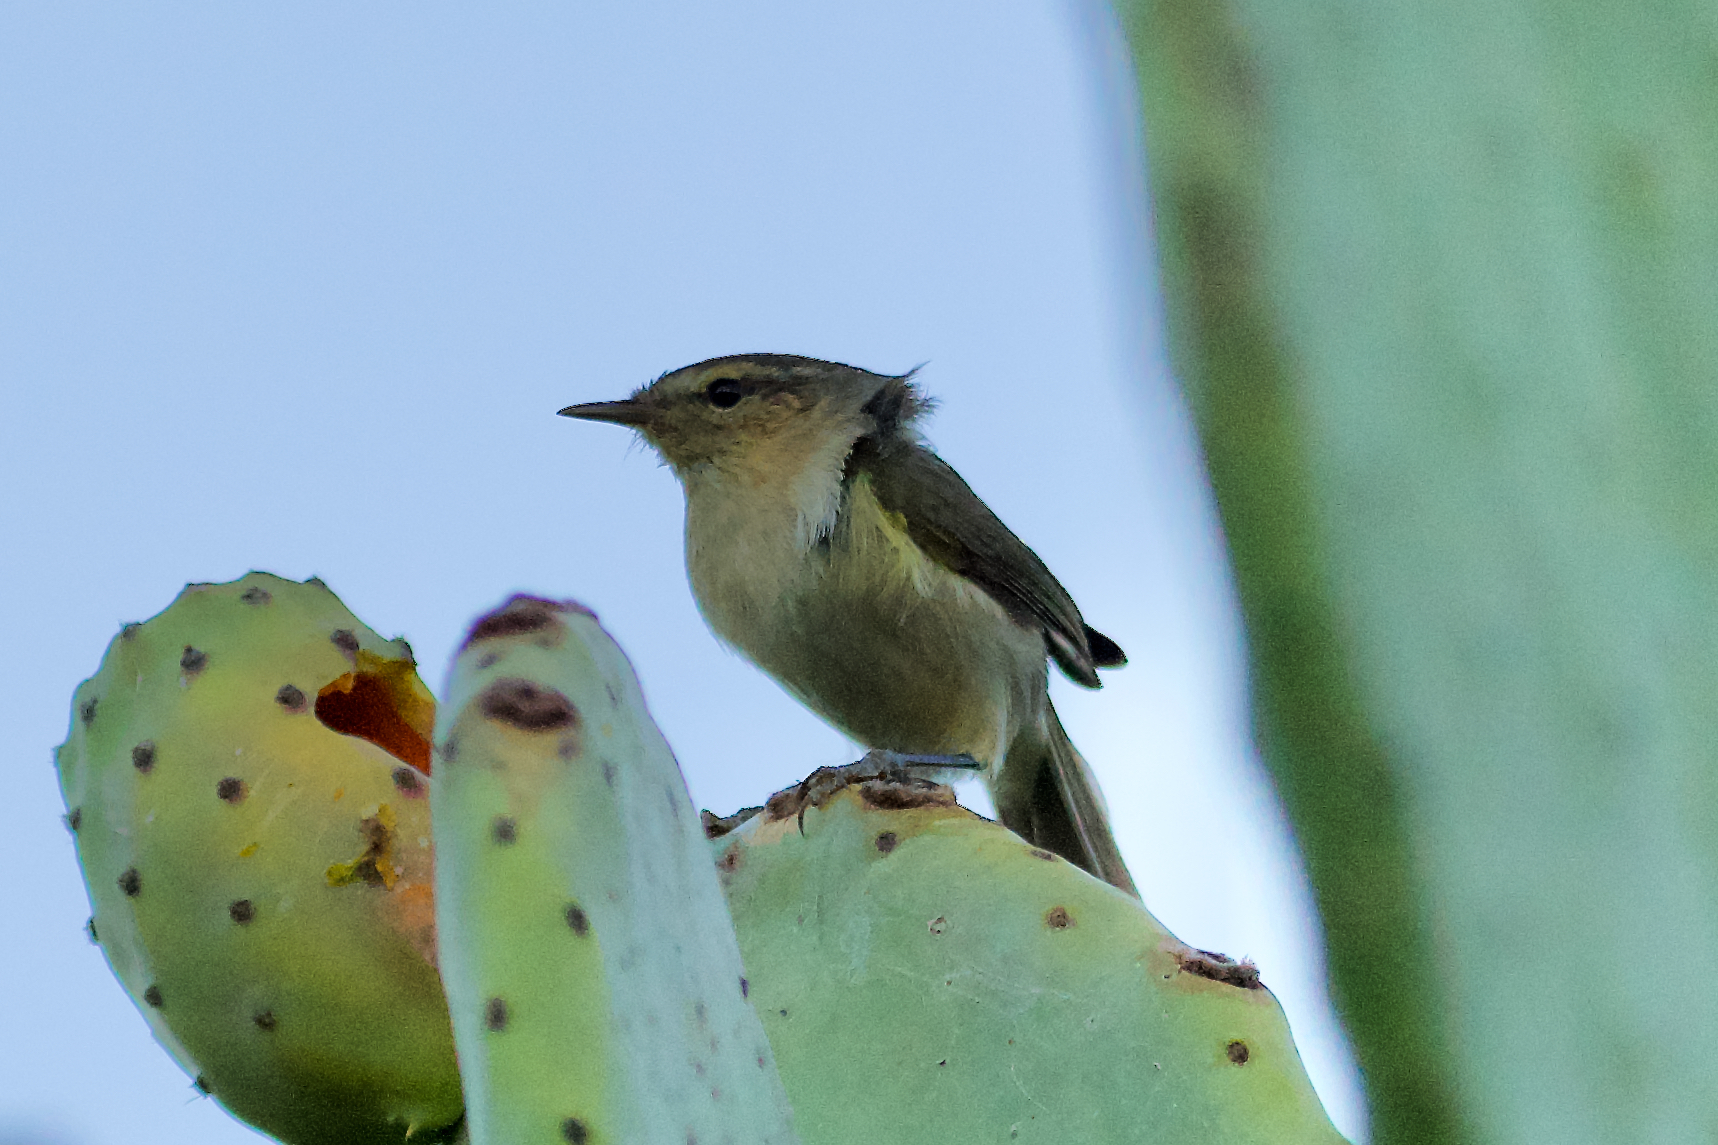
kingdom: Animalia
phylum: Chordata
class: Aves
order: Passeriformes
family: Phylloscopidae
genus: Phylloscopus
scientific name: Phylloscopus canariensis
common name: Canary islands chiffchaff
